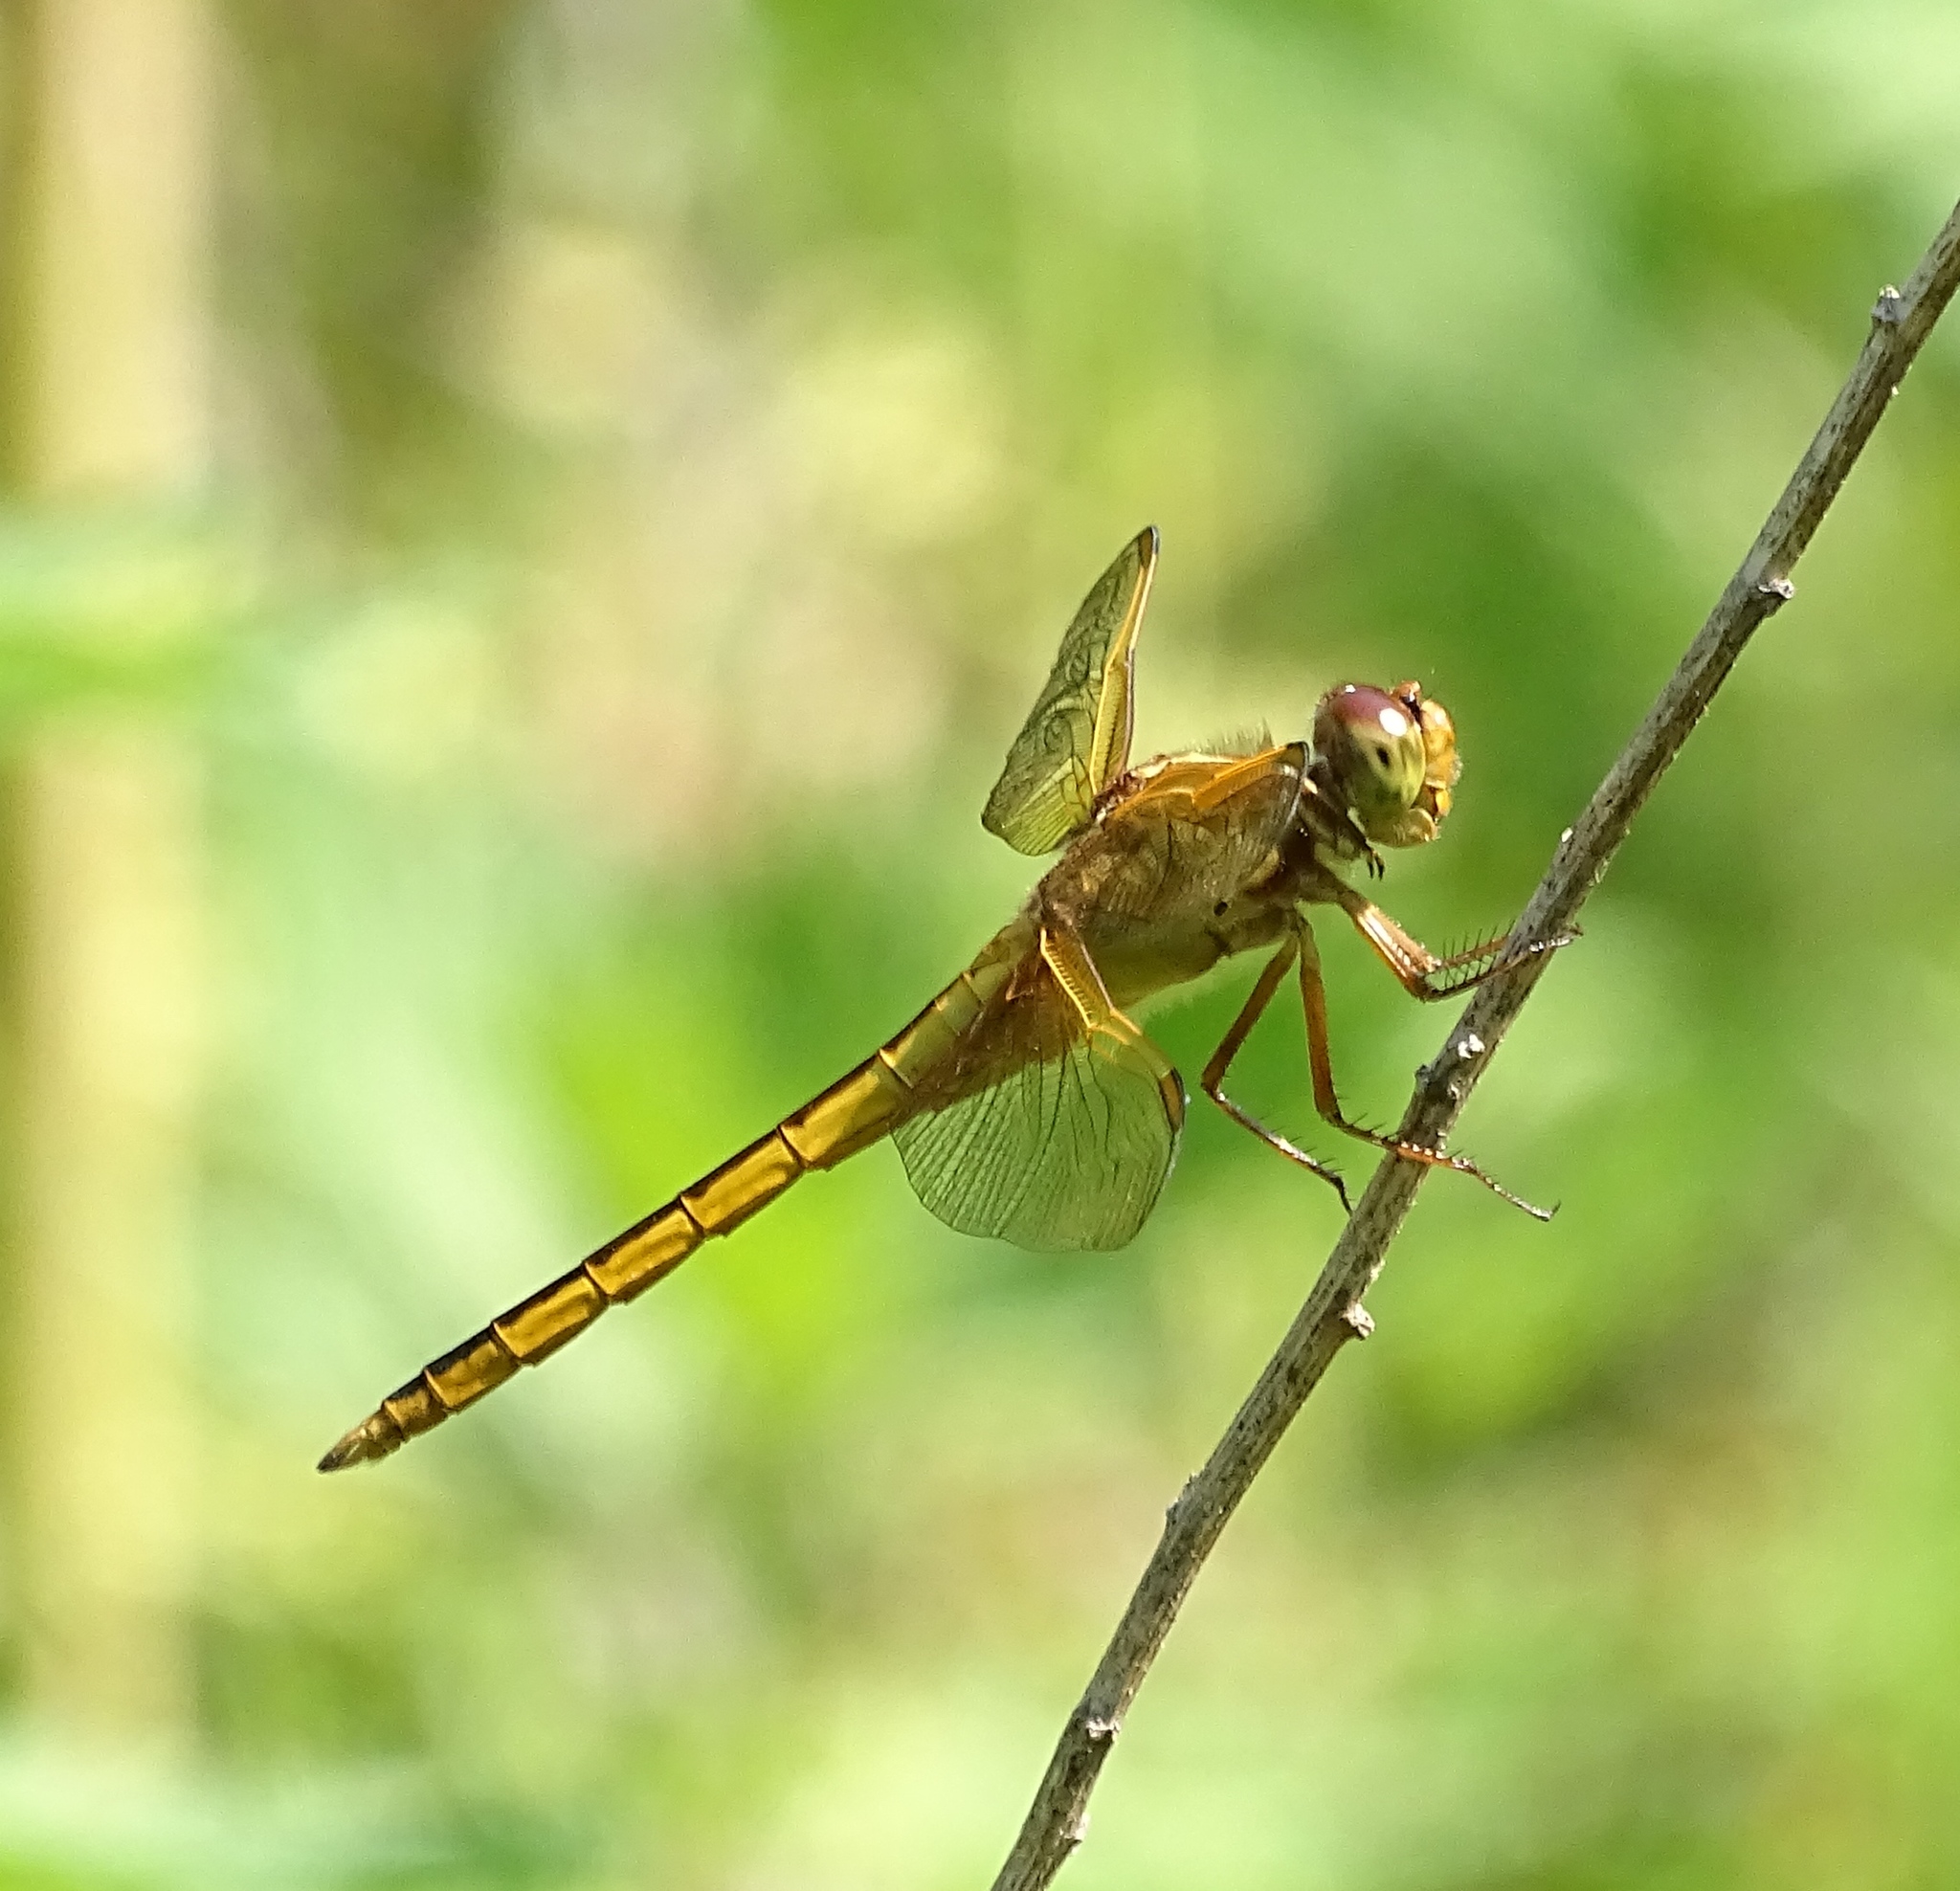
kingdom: Animalia
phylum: Arthropoda
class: Insecta
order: Odonata
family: Libellulidae
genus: Libellula
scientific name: Libellula needhami
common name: Needham's skimmer
